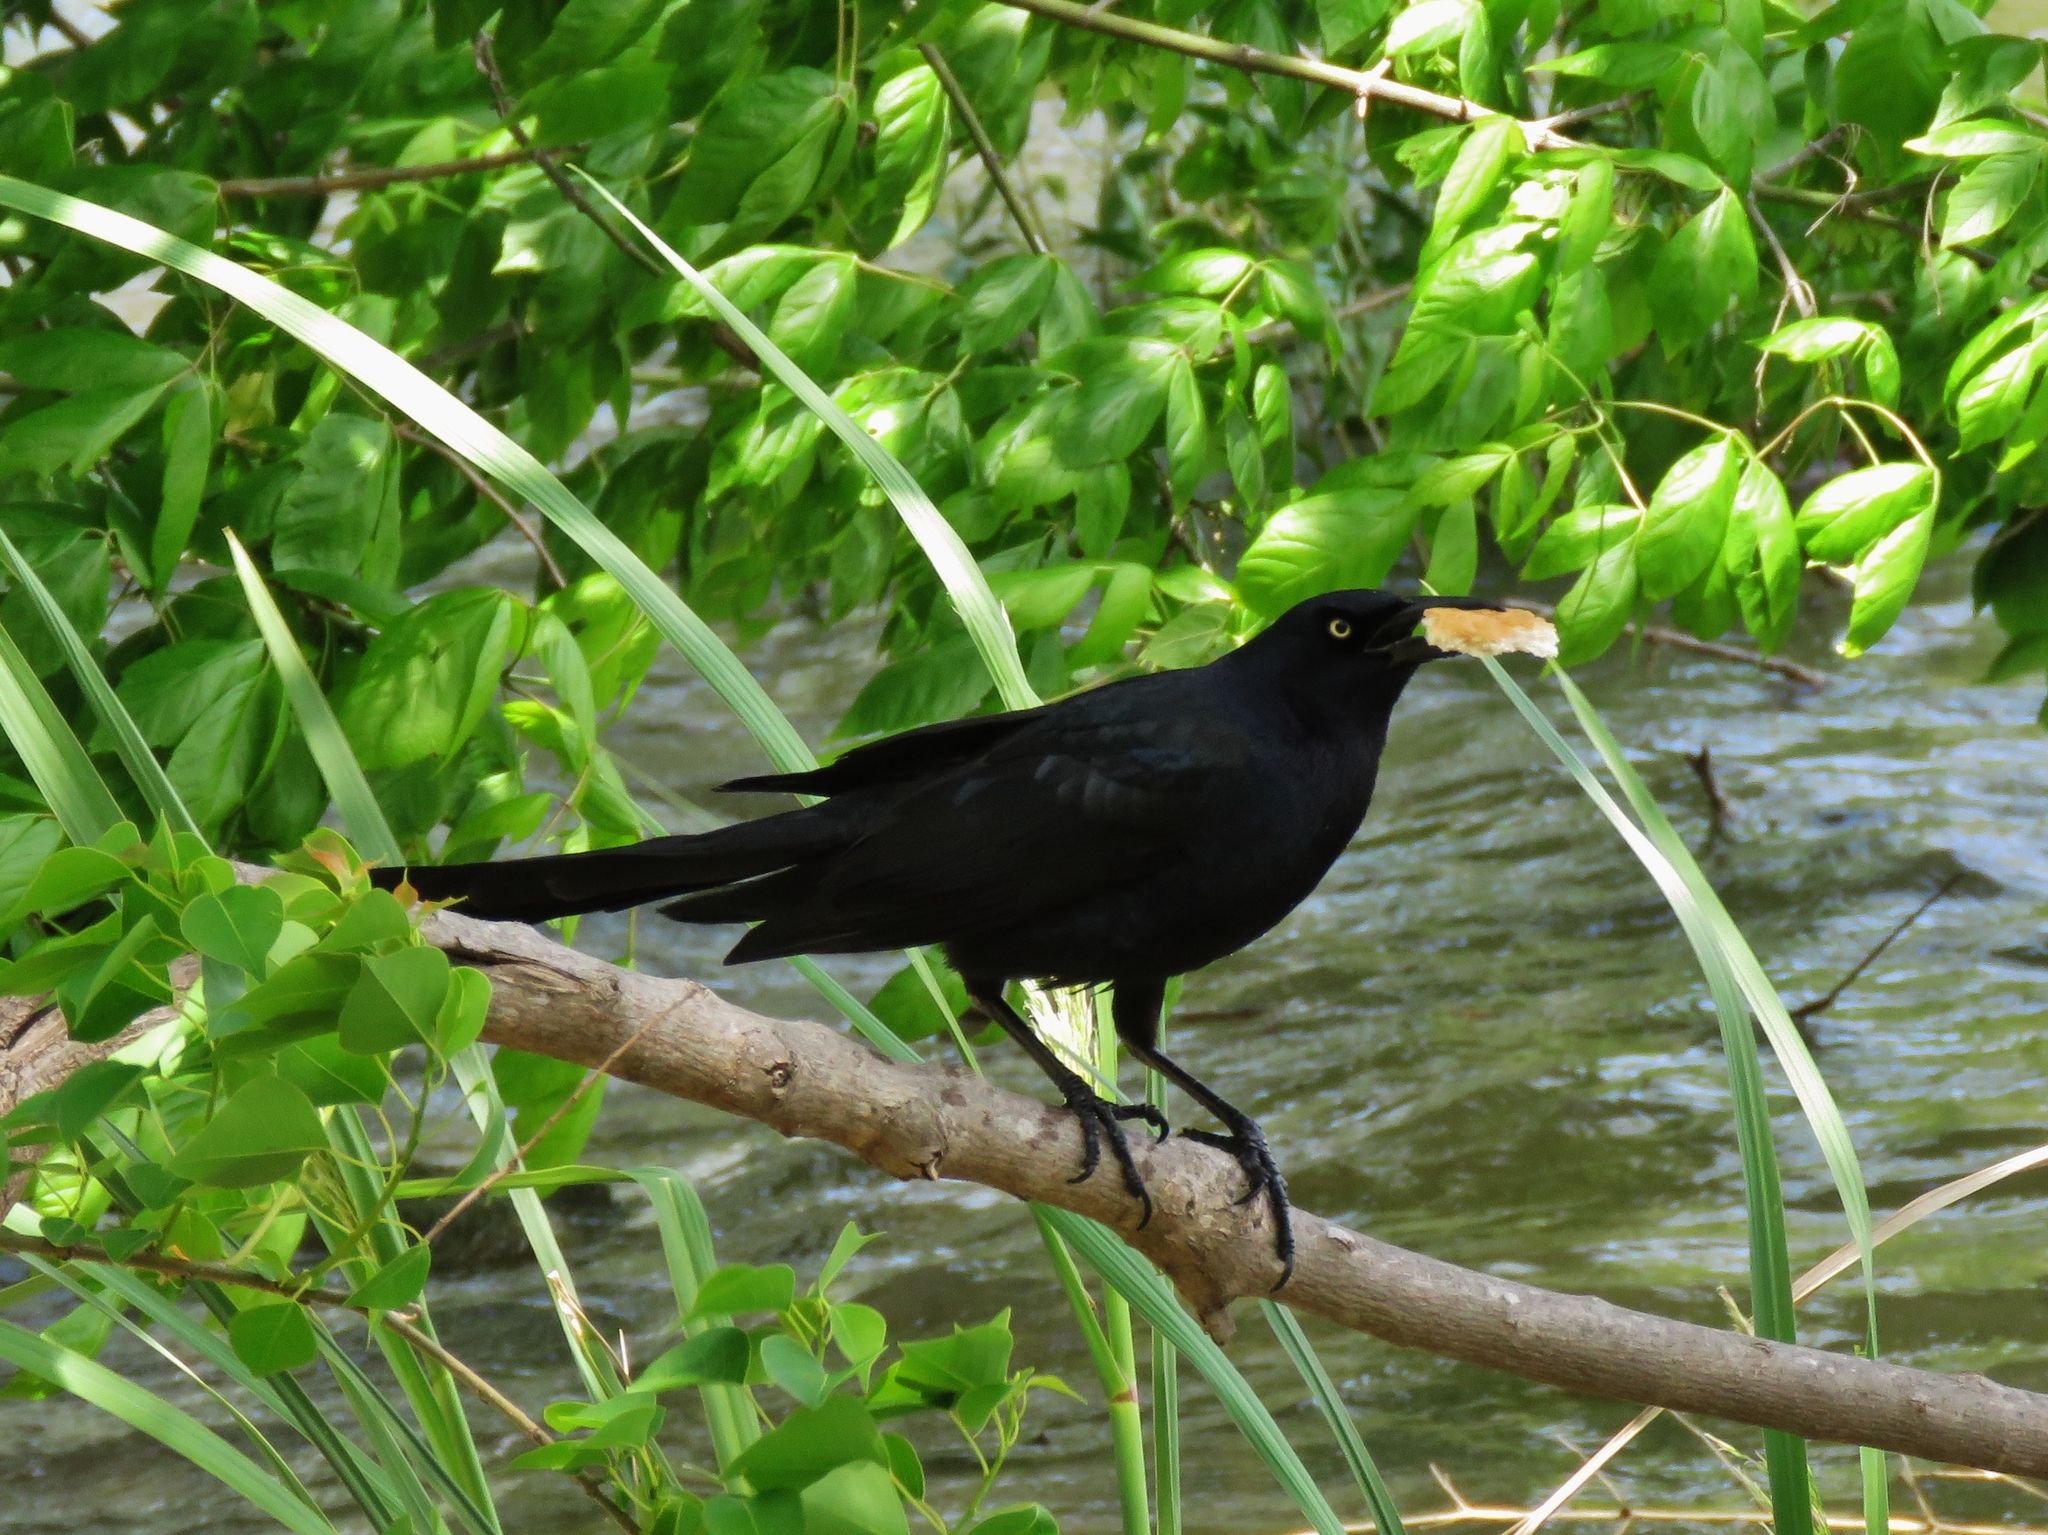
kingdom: Animalia
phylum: Chordata
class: Aves
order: Passeriformes
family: Icteridae
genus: Quiscalus
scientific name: Quiscalus mexicanus
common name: Great-tailed grackle
